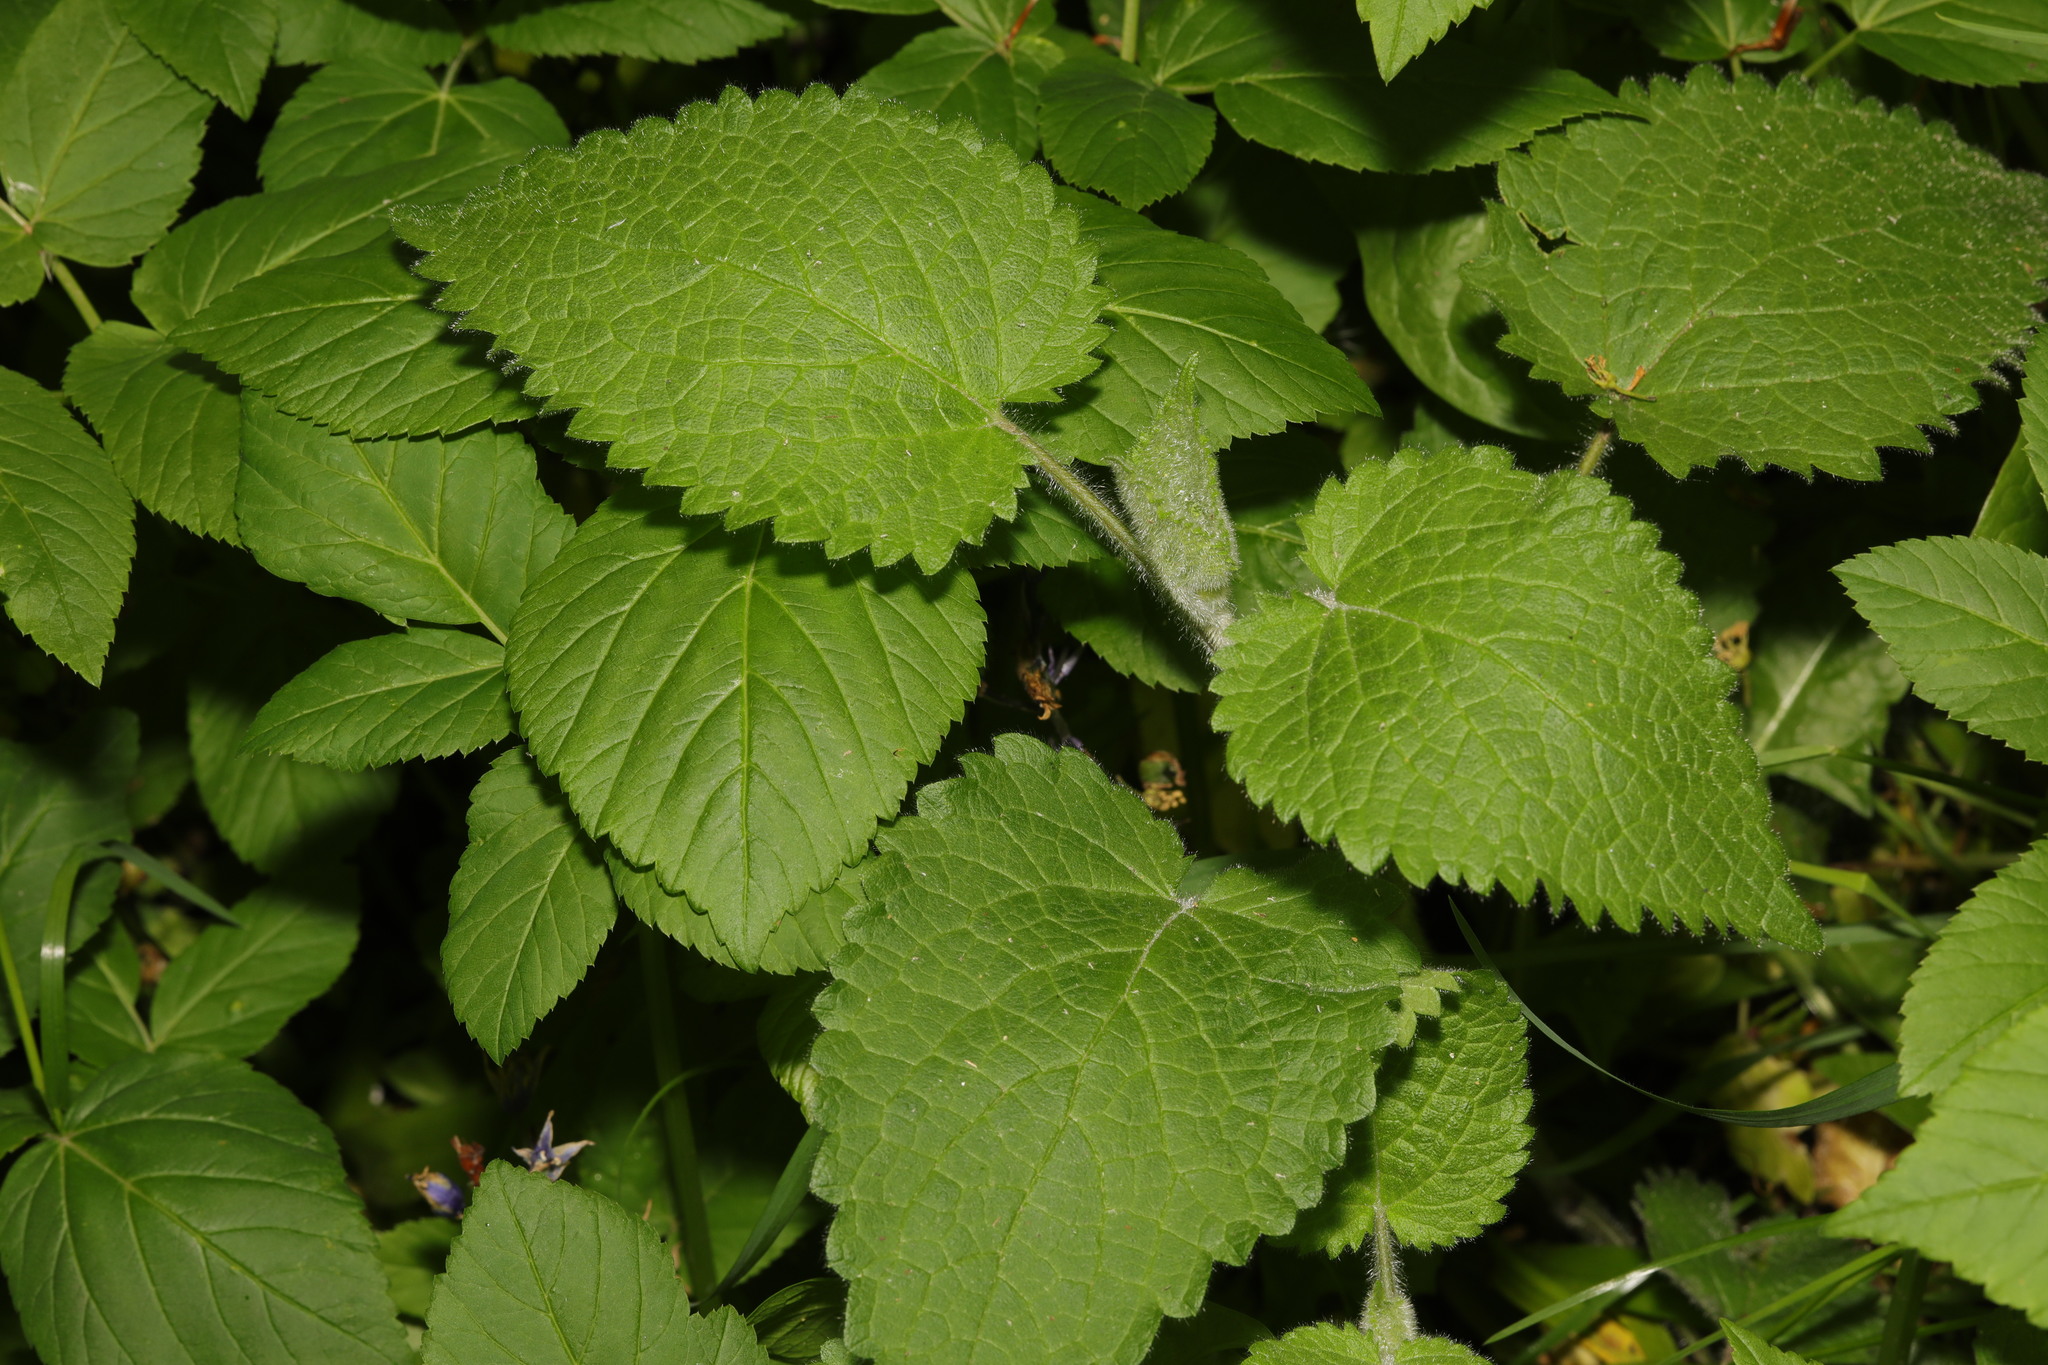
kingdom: Plantae
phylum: Tracheophyta
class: Magnoliopsida
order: Lamiales
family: Lamiaceae
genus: Stachys
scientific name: Stachys sylvatica
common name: Hedge woundwort
